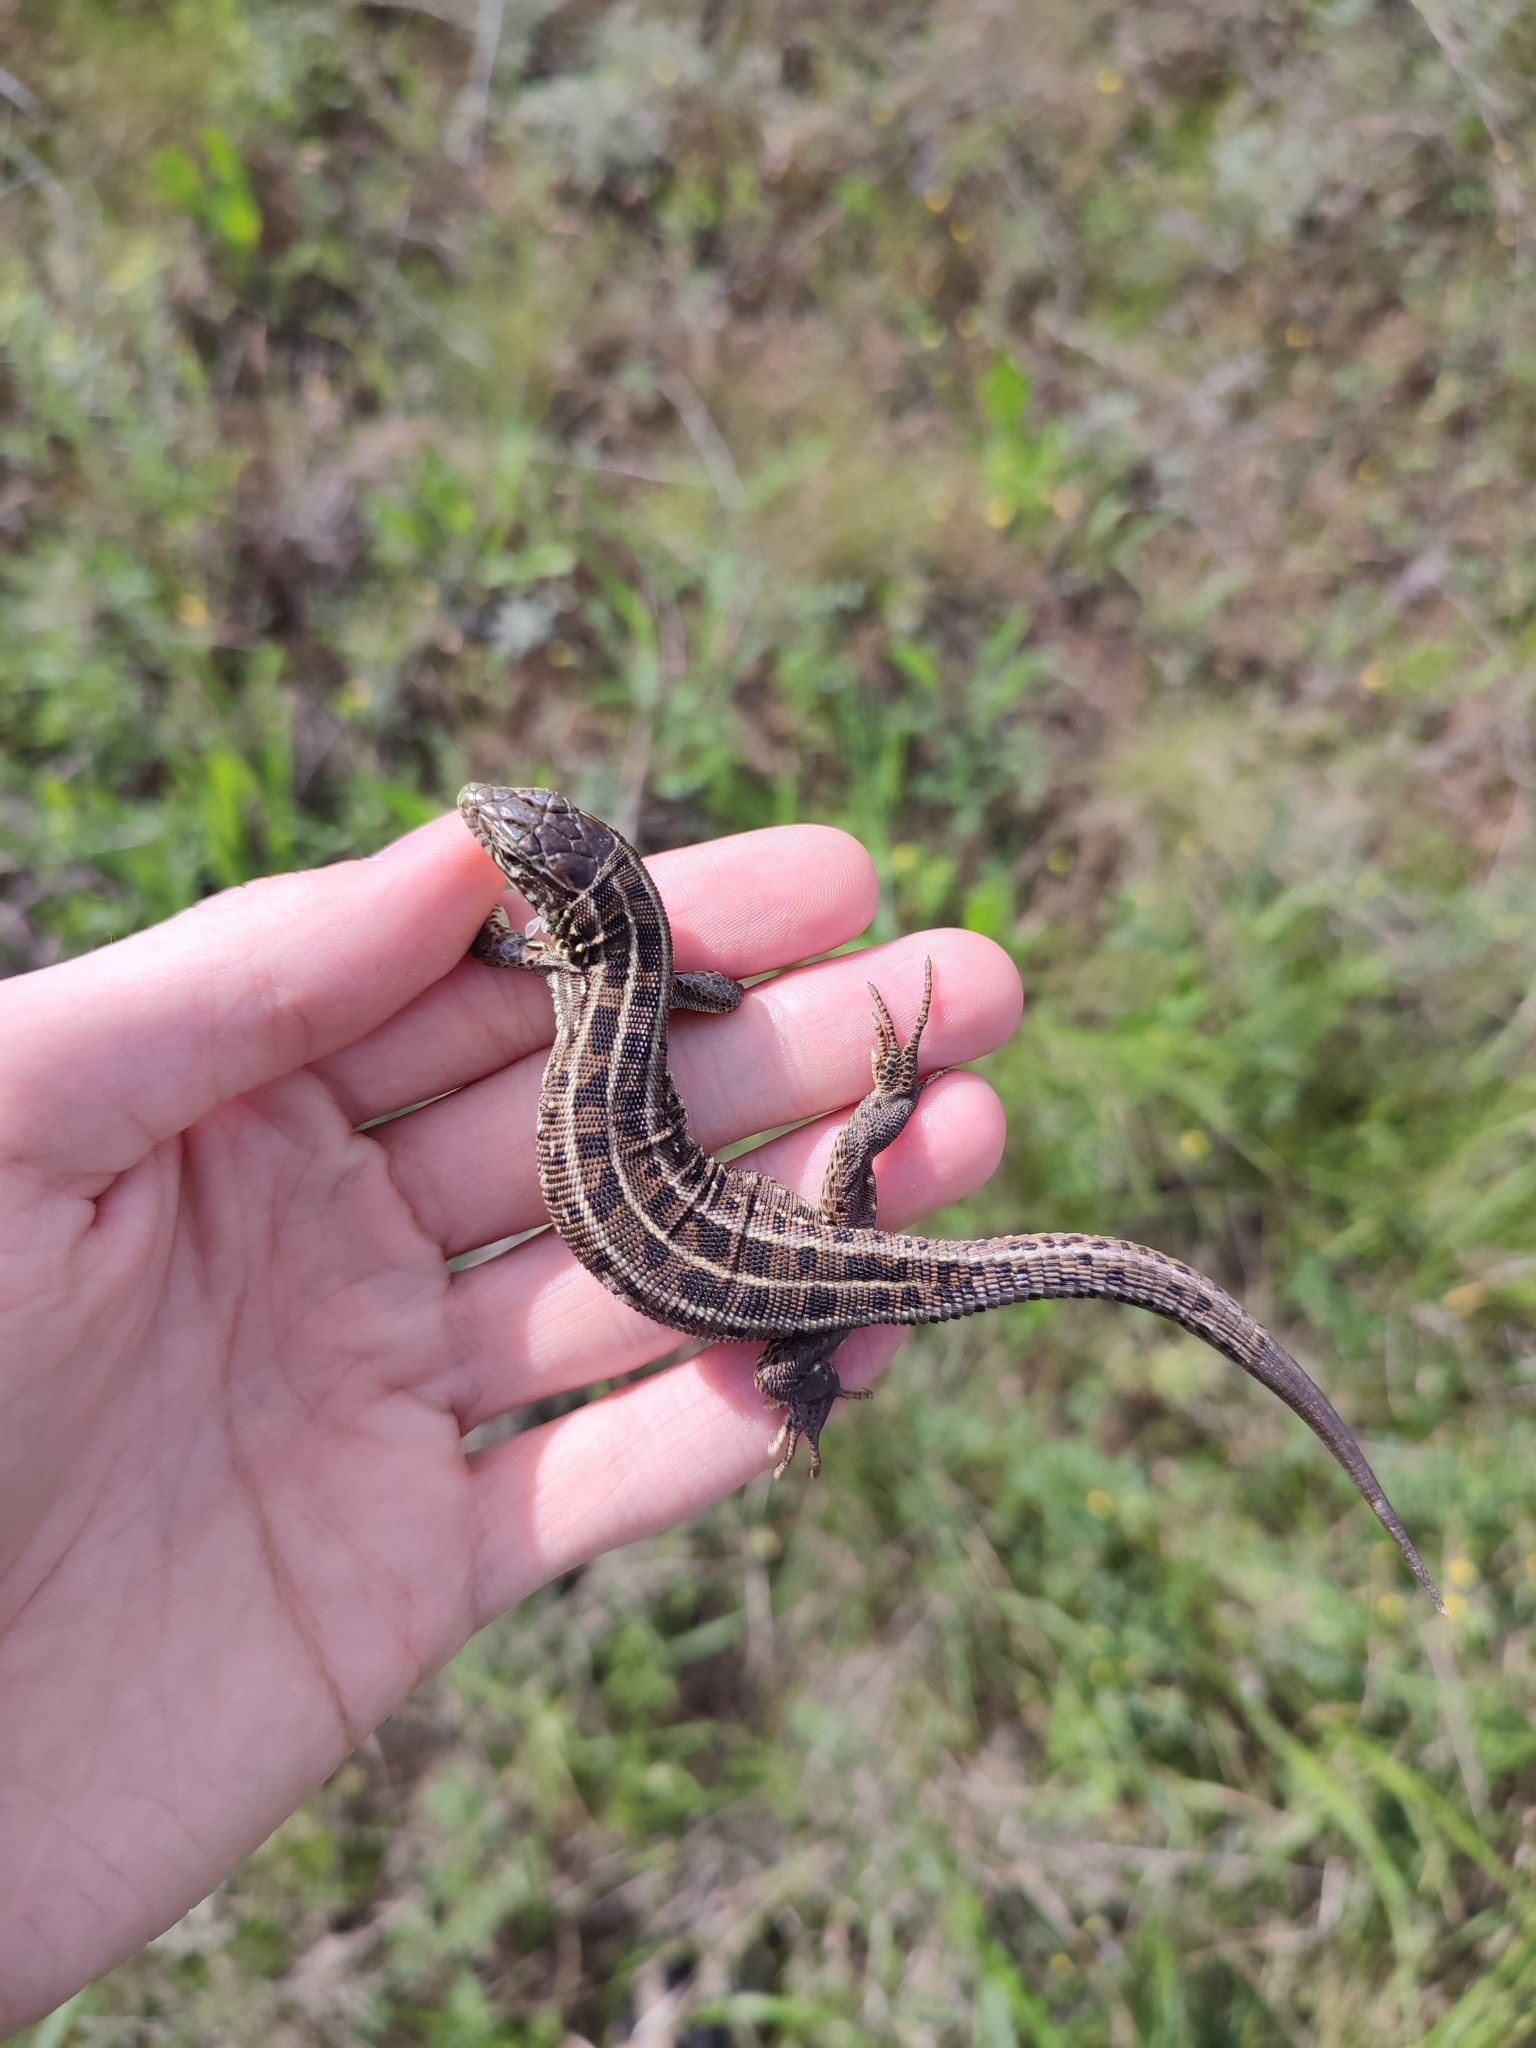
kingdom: Animalia
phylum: Chordata
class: Squamata
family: Lacertidae
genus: Lacerta
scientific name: Lacerta agilis
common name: Sand lizard
